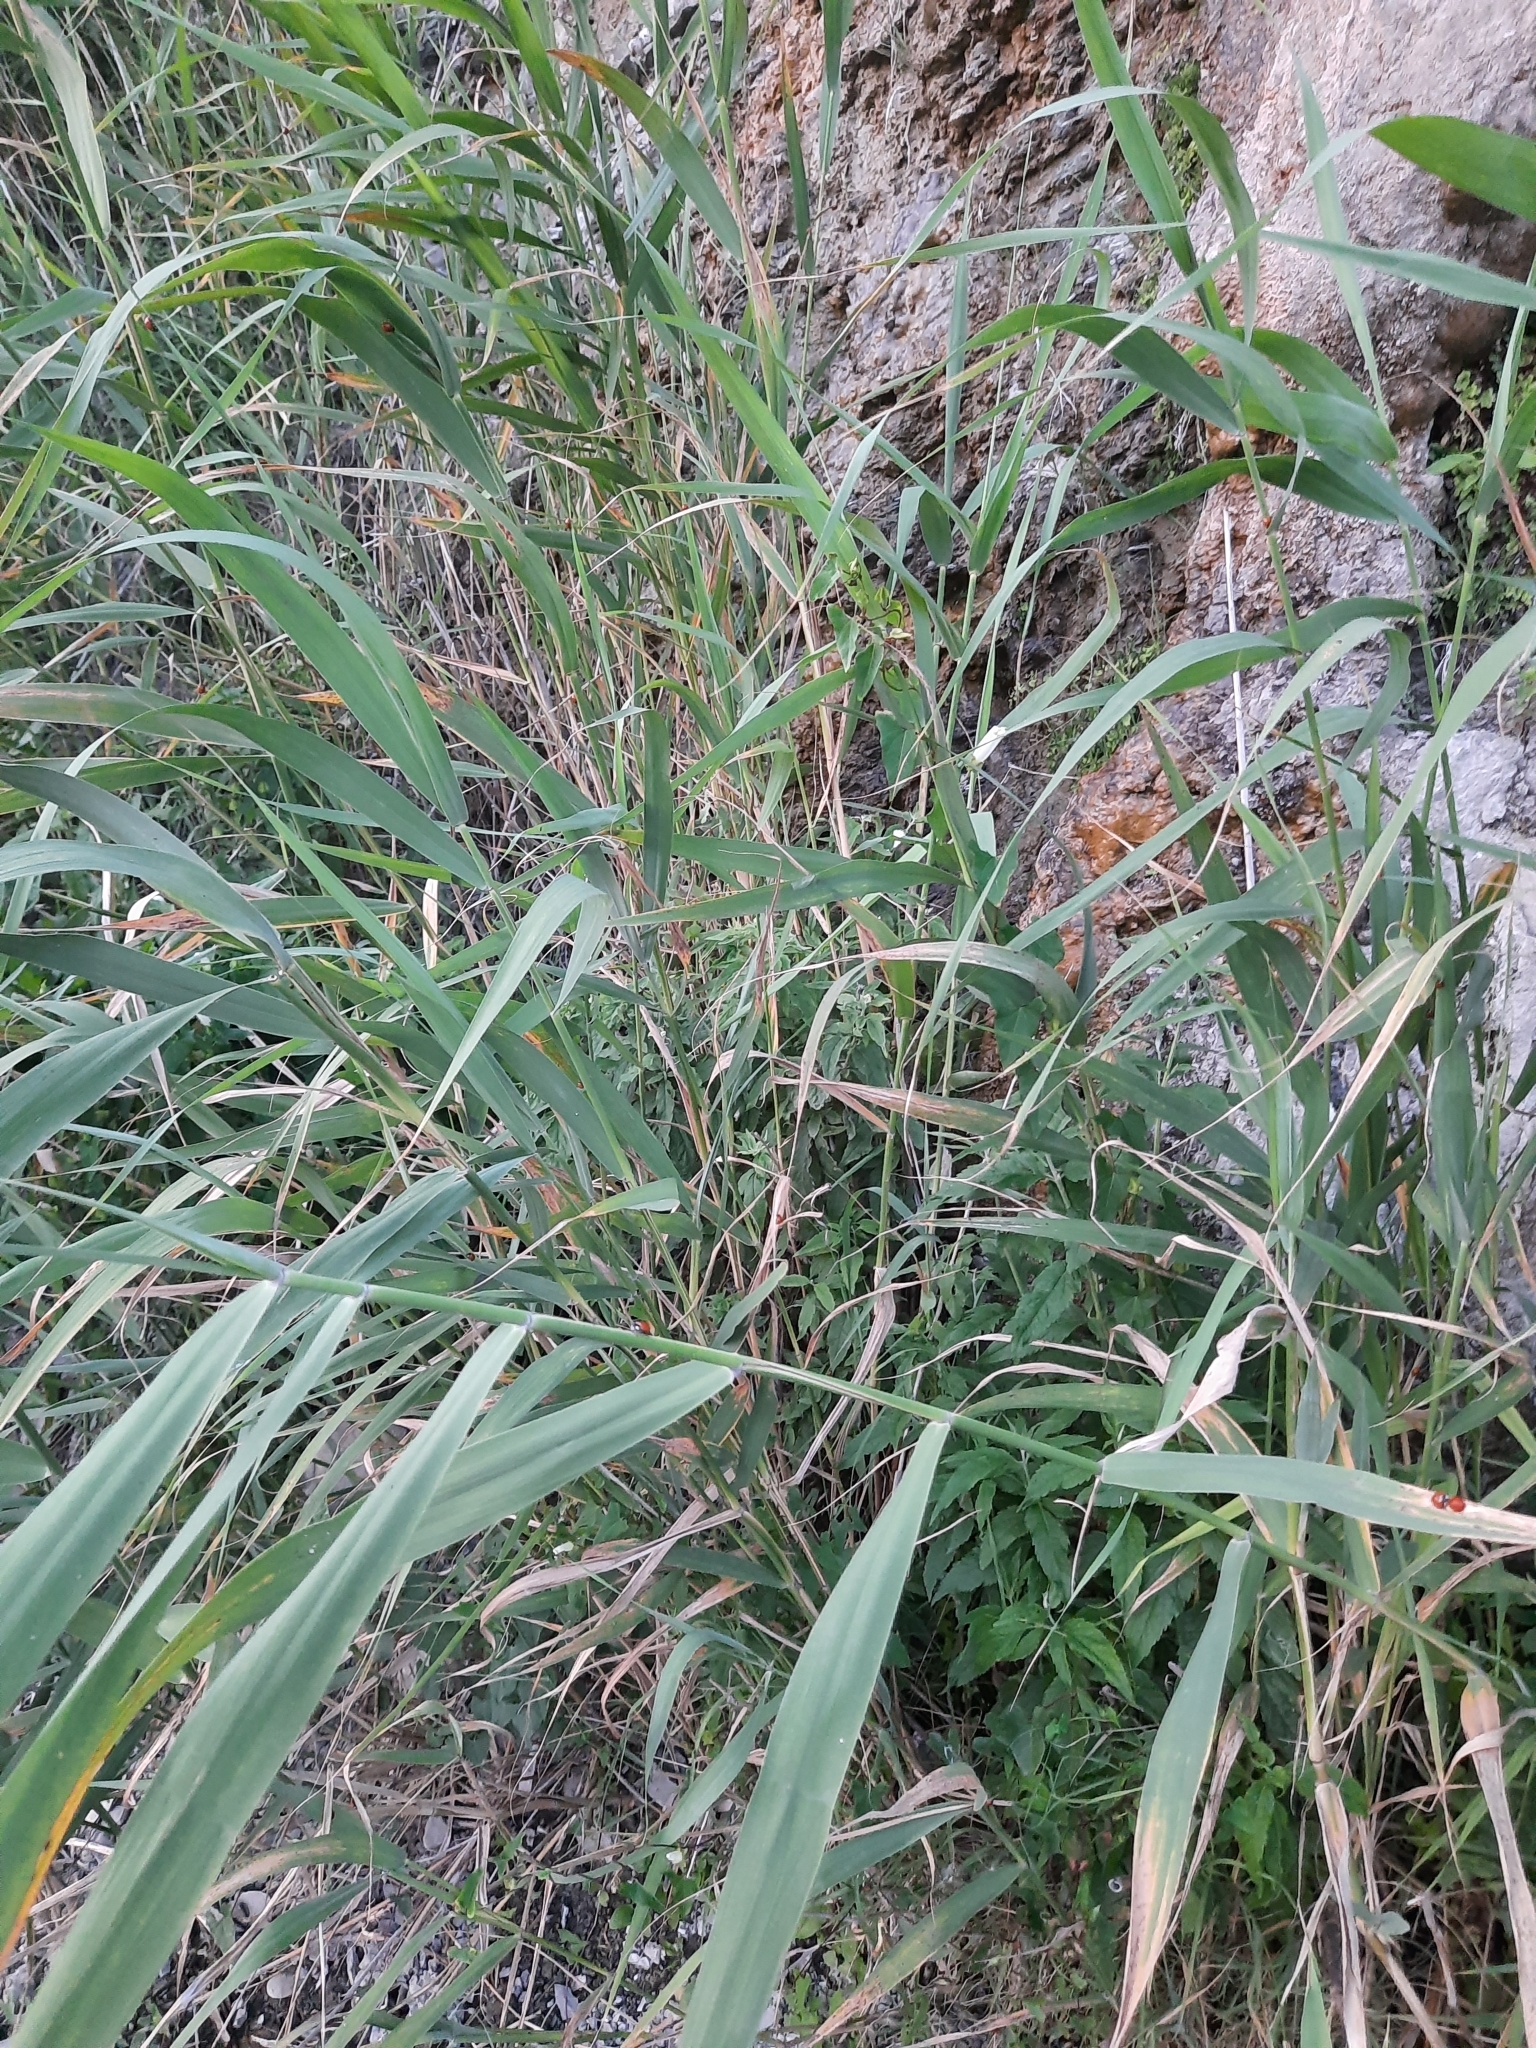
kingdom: Plantae
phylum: Tracheophyta
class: Liliopsida
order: Poales
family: Poaceae
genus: Phragmites
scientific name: Phragmites australis
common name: Common reed
